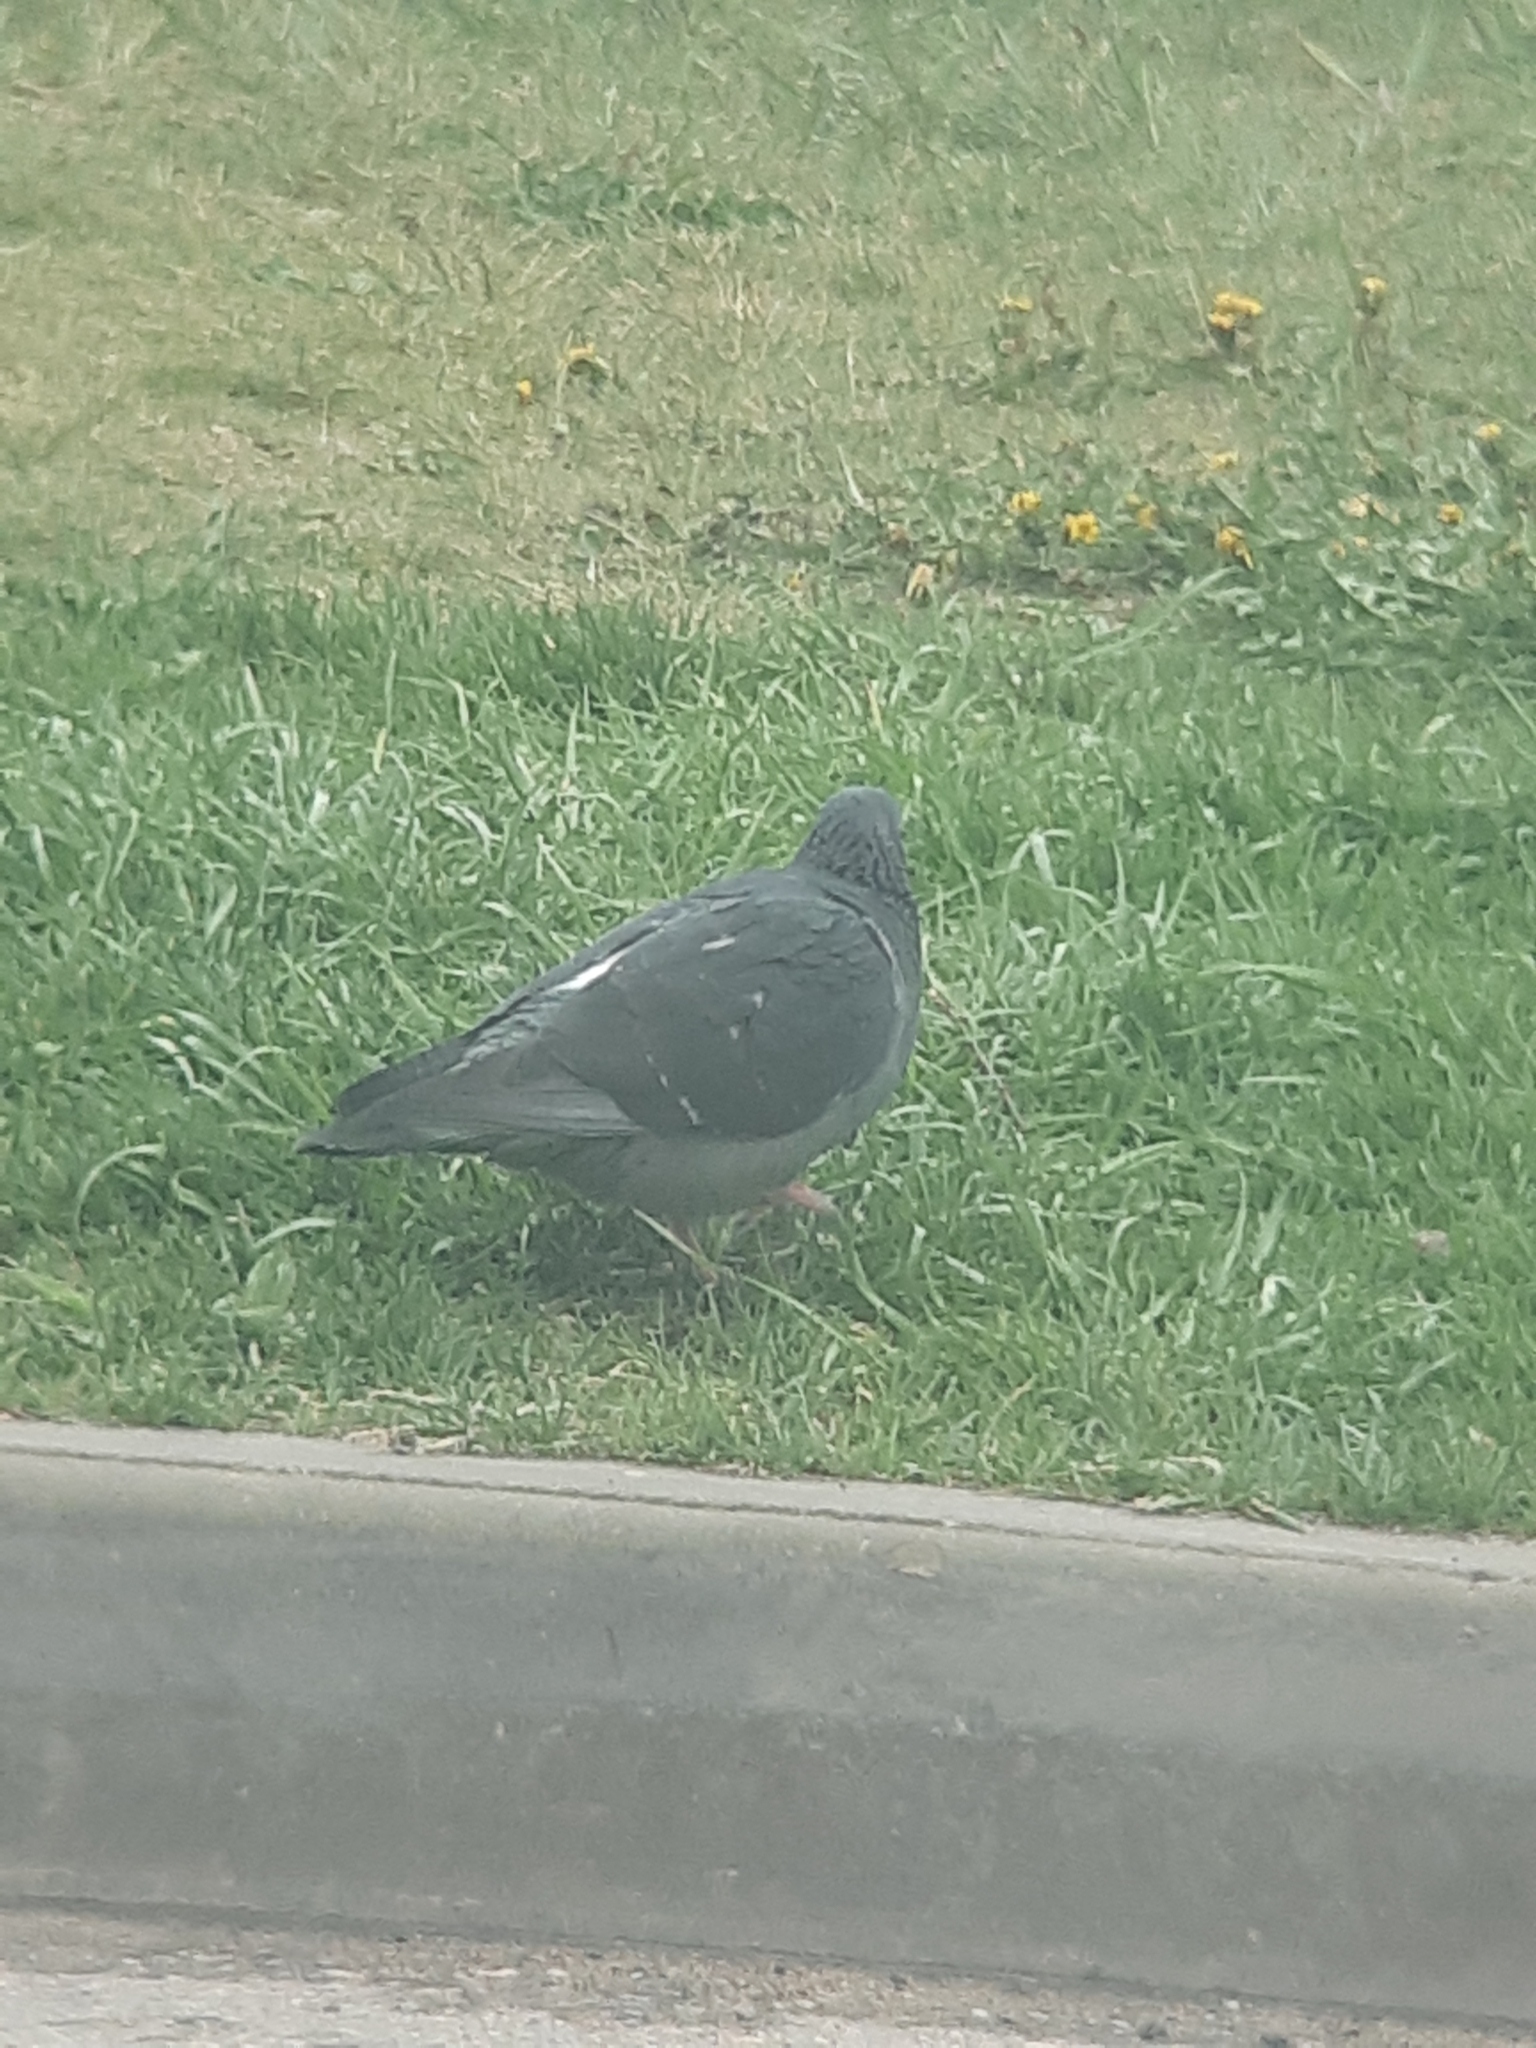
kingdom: Animalia
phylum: Chordata
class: Aves
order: Columbiformes
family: Columbidae
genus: Columba
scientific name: Columba livia
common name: Rock pigeon
